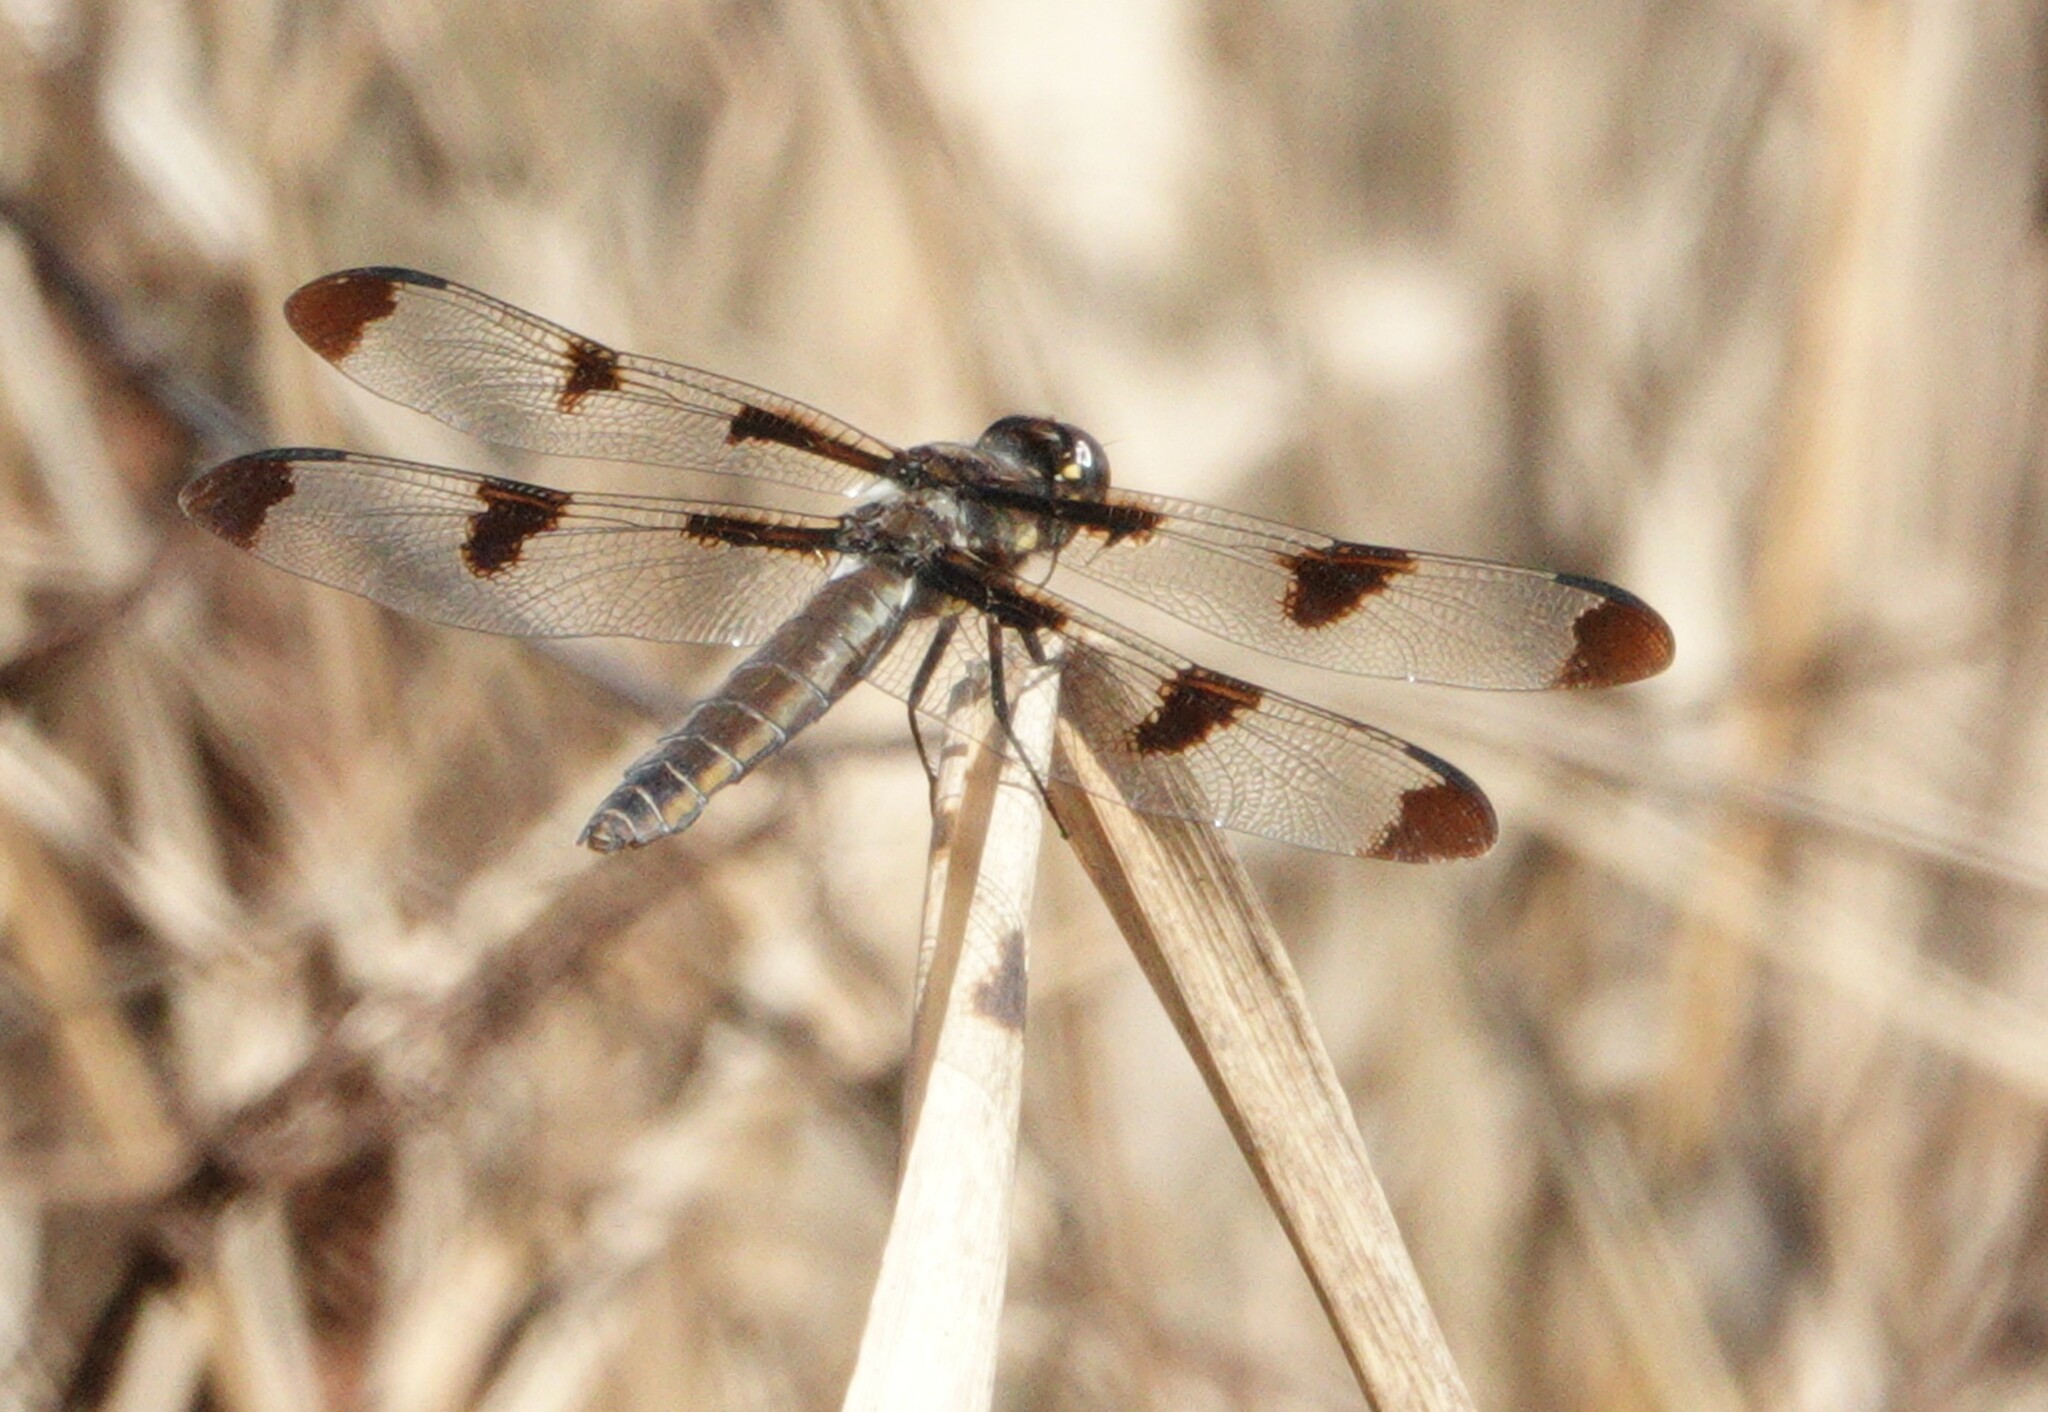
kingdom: Animalia
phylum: Arthropoda
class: Insecta
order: Odonata
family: Libellulidae
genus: Libellula
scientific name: Libellula pulchella
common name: Twelve-spotted skimmer
